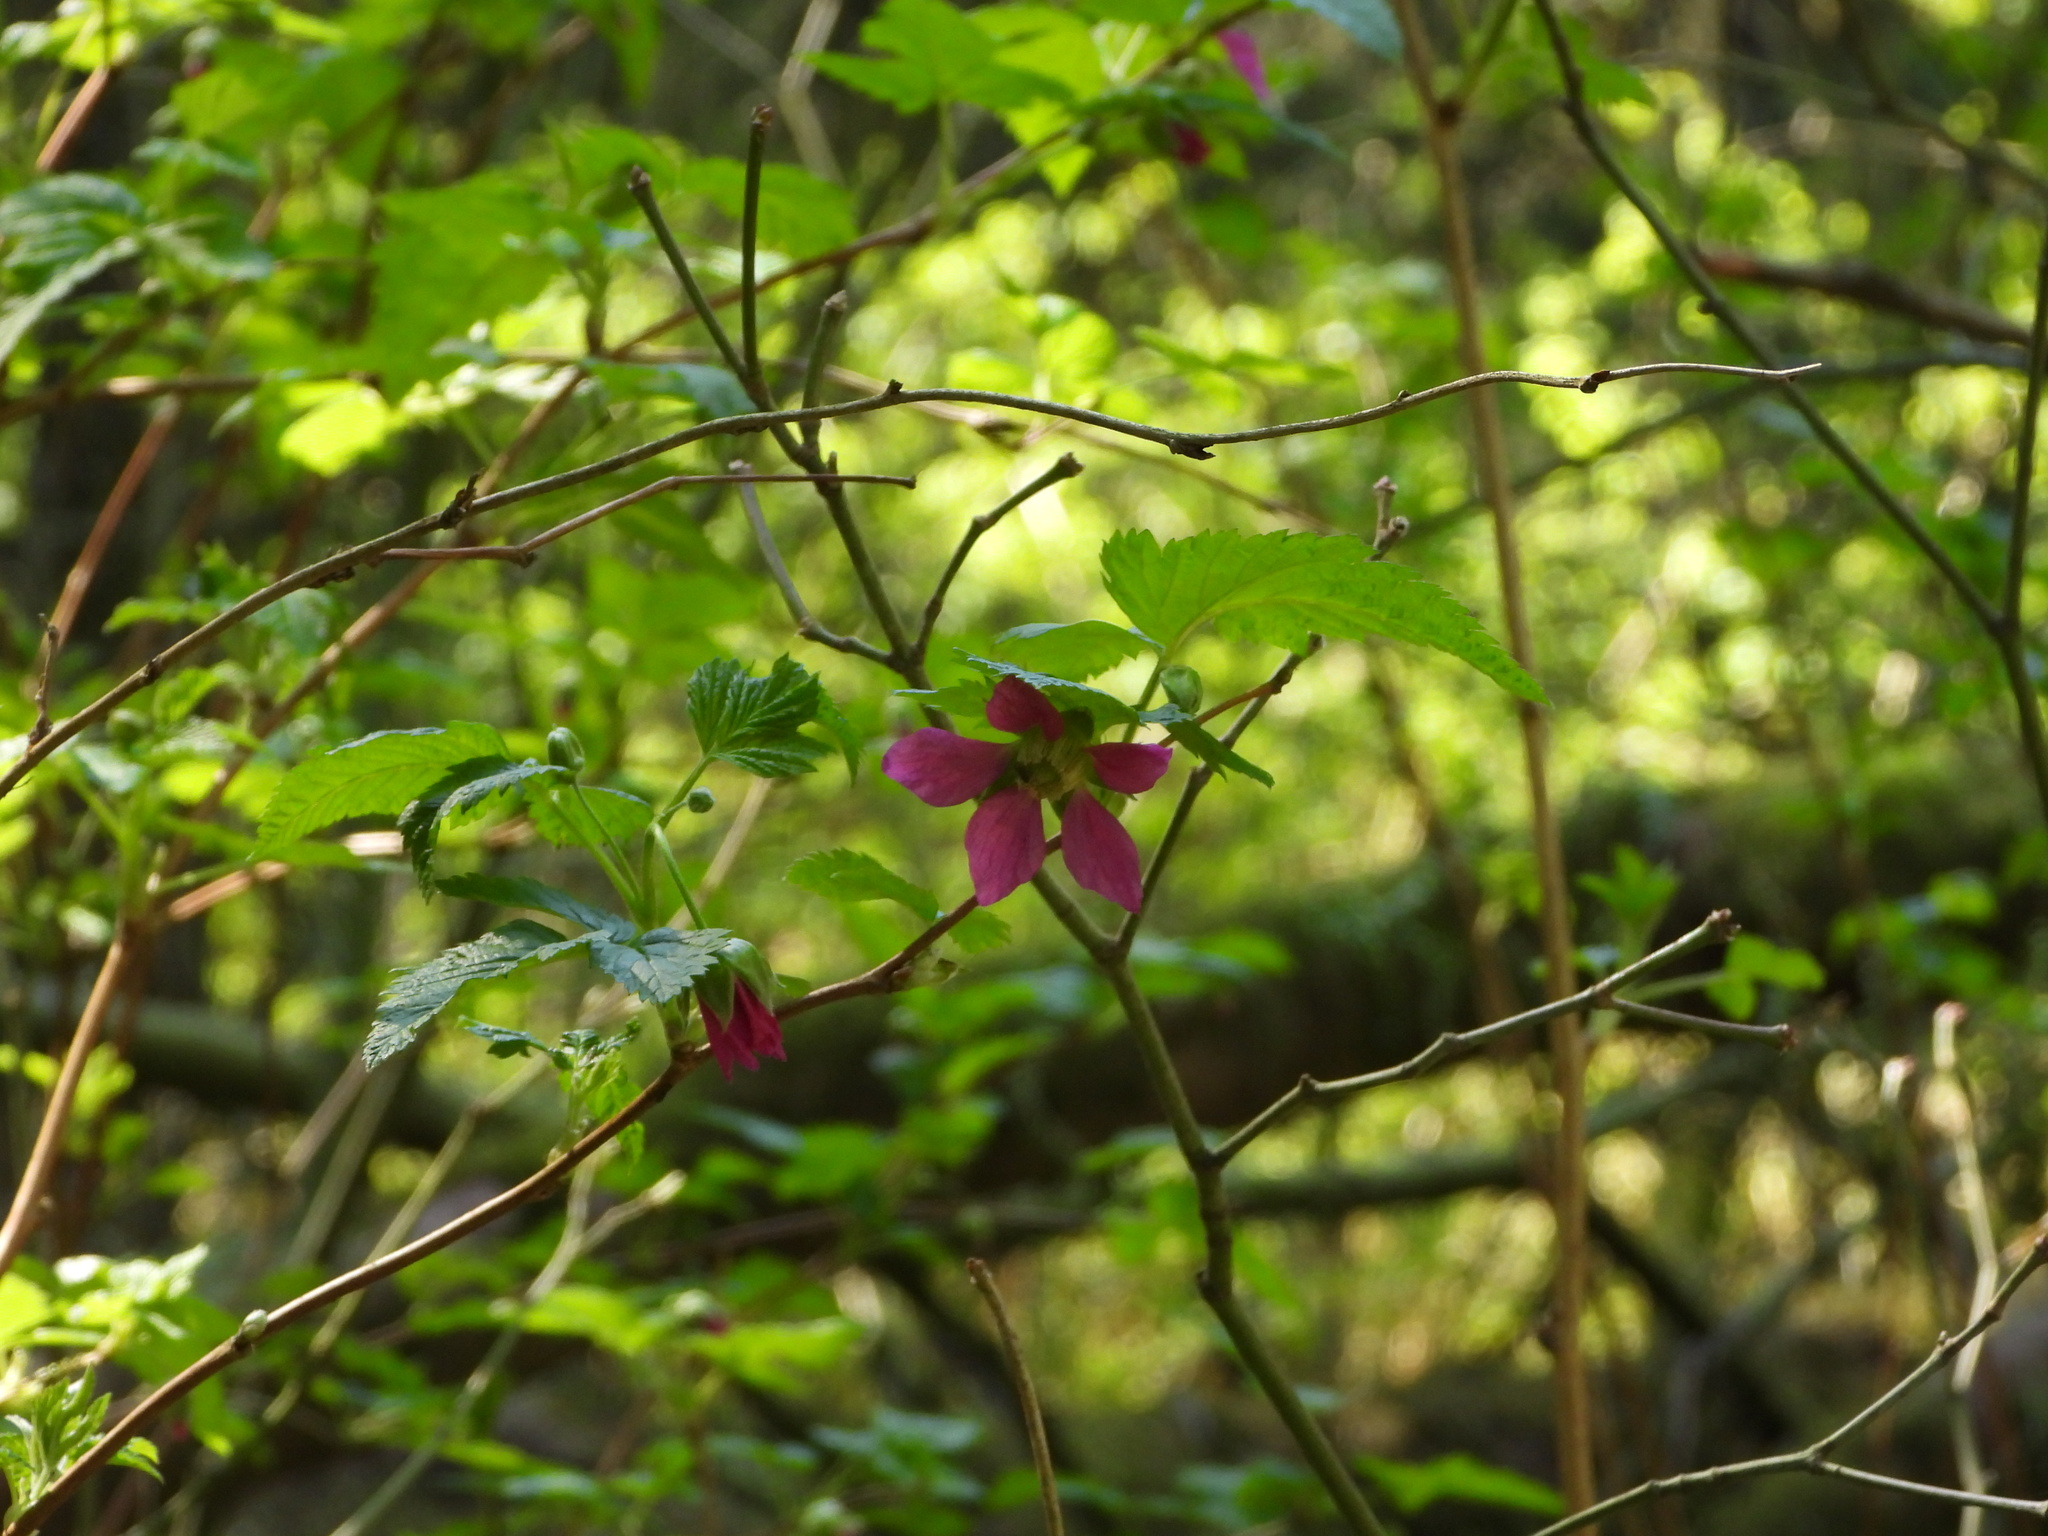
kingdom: Plantae
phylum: Tracheophyta
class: Magnoliopsida
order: Rosales
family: Rosaceae
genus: Rubus
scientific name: Rubus spectabilis
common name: Salmonberry
